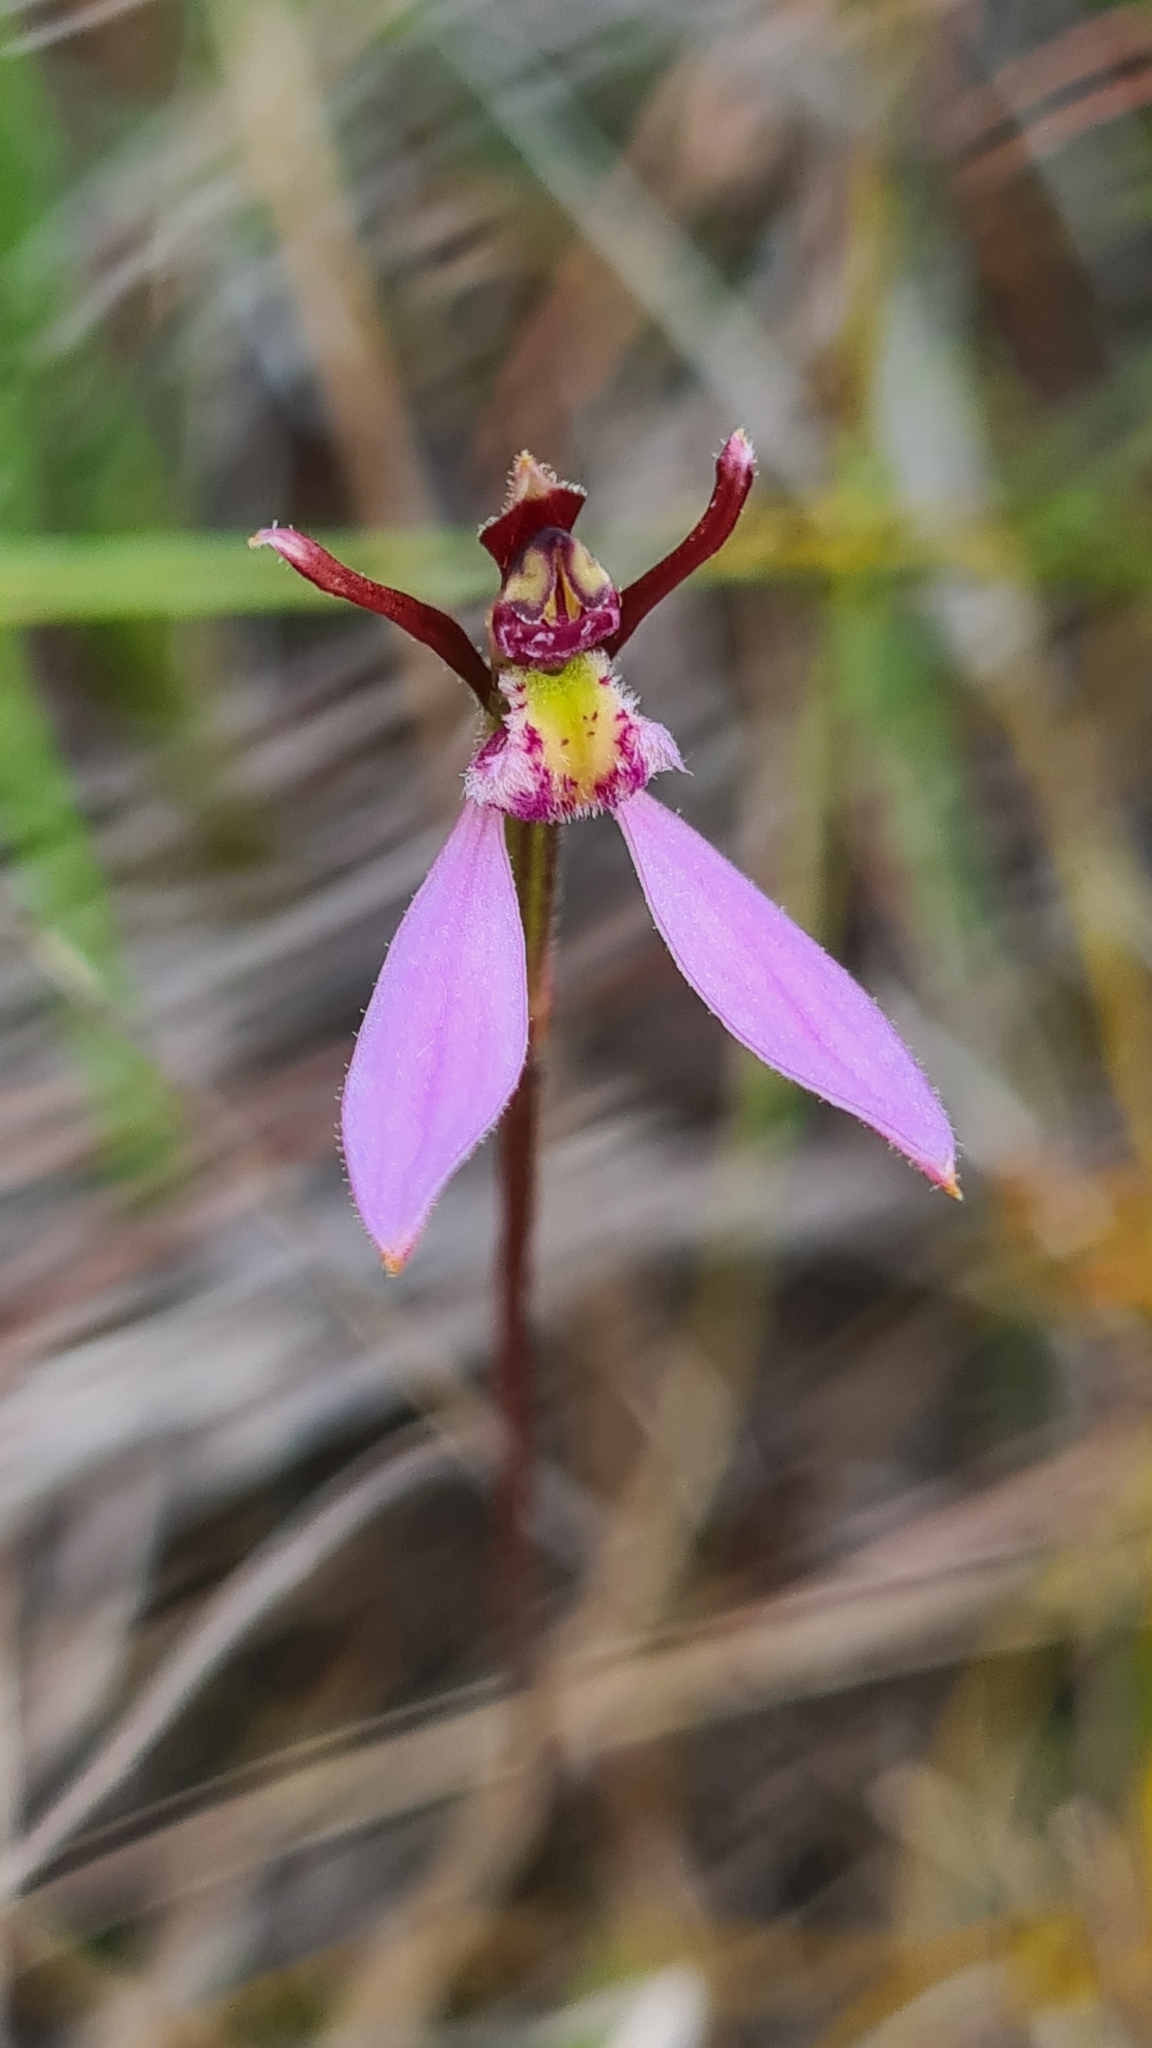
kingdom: Plantae
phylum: Tracheophyta
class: Liliopsida
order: Asparagales
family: Orchidaceae
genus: Eriochilus
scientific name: Eriochilus cucullatus
